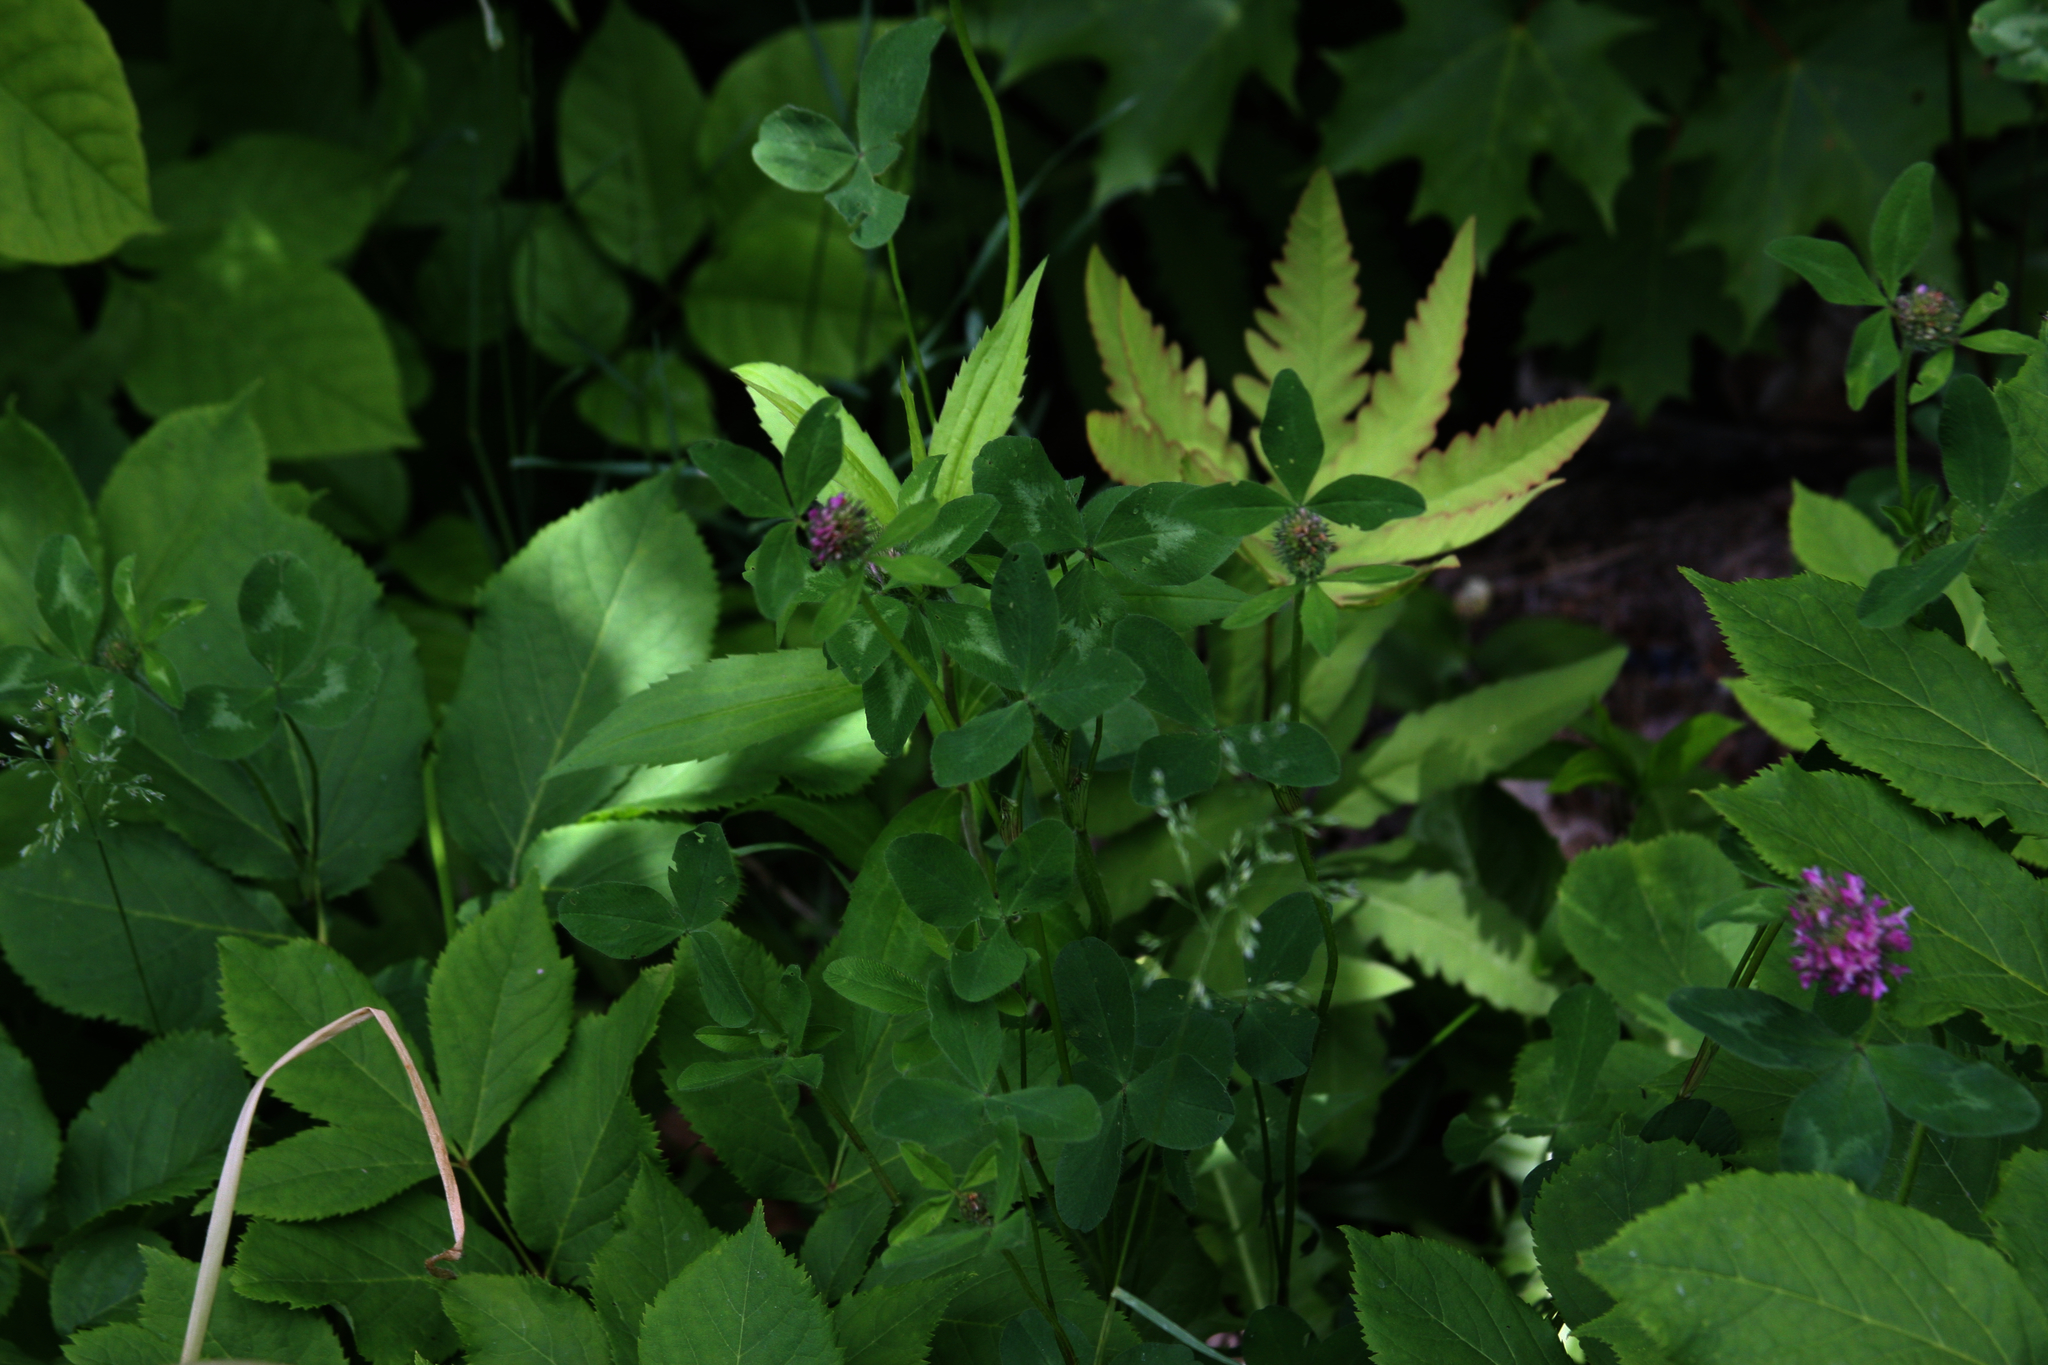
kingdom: Plantae
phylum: Tracheophyta
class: Magnoliopsida
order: Fabales
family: Fabaceae
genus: Trifolium
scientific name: Trifolium pratense
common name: Red clover
